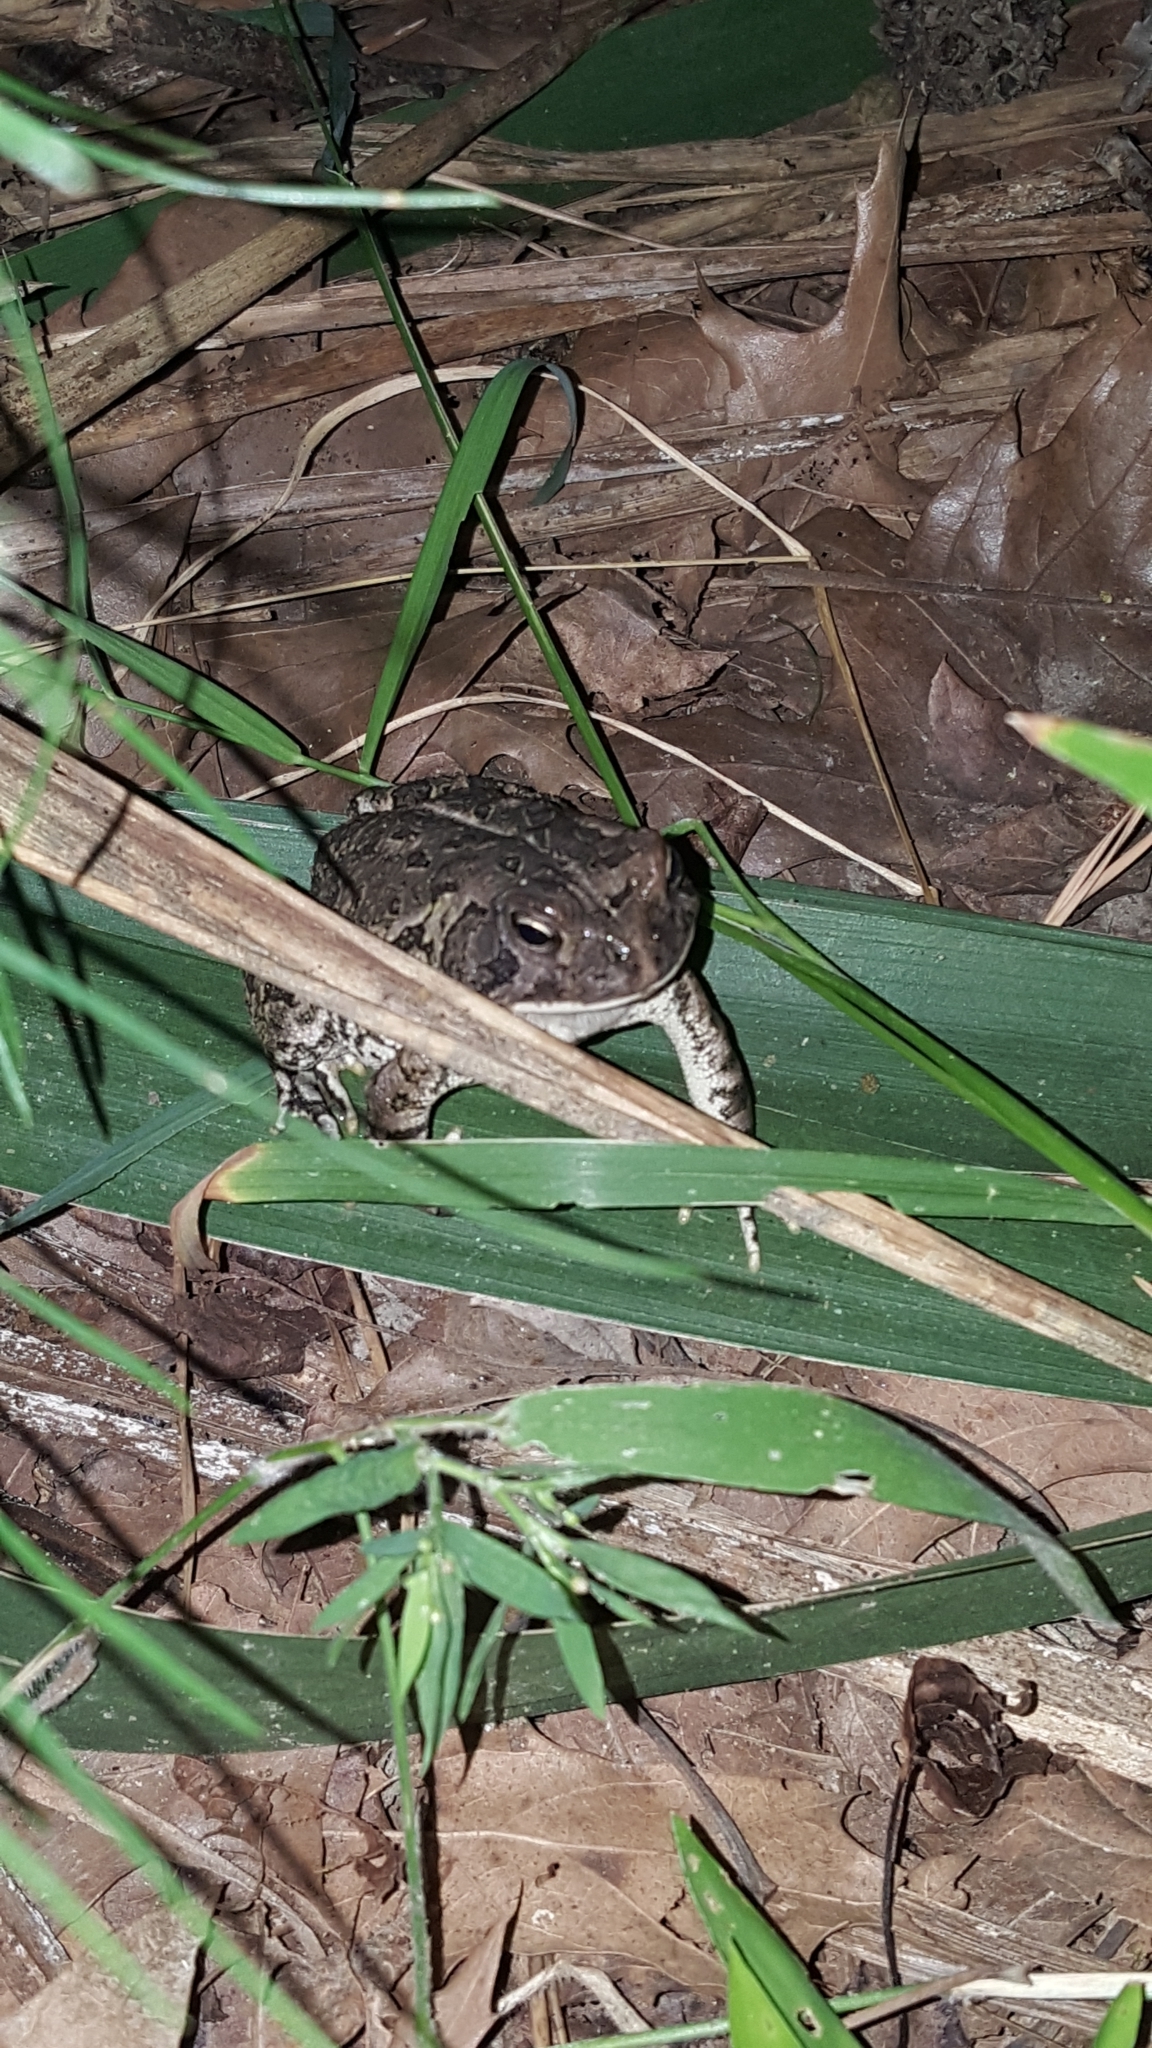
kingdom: Animalia
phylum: Chordata
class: Amphibia
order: Anura
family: Bufonidae
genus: Anaxyrus
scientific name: Anaxyrus fowleri
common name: Fowler's toad
